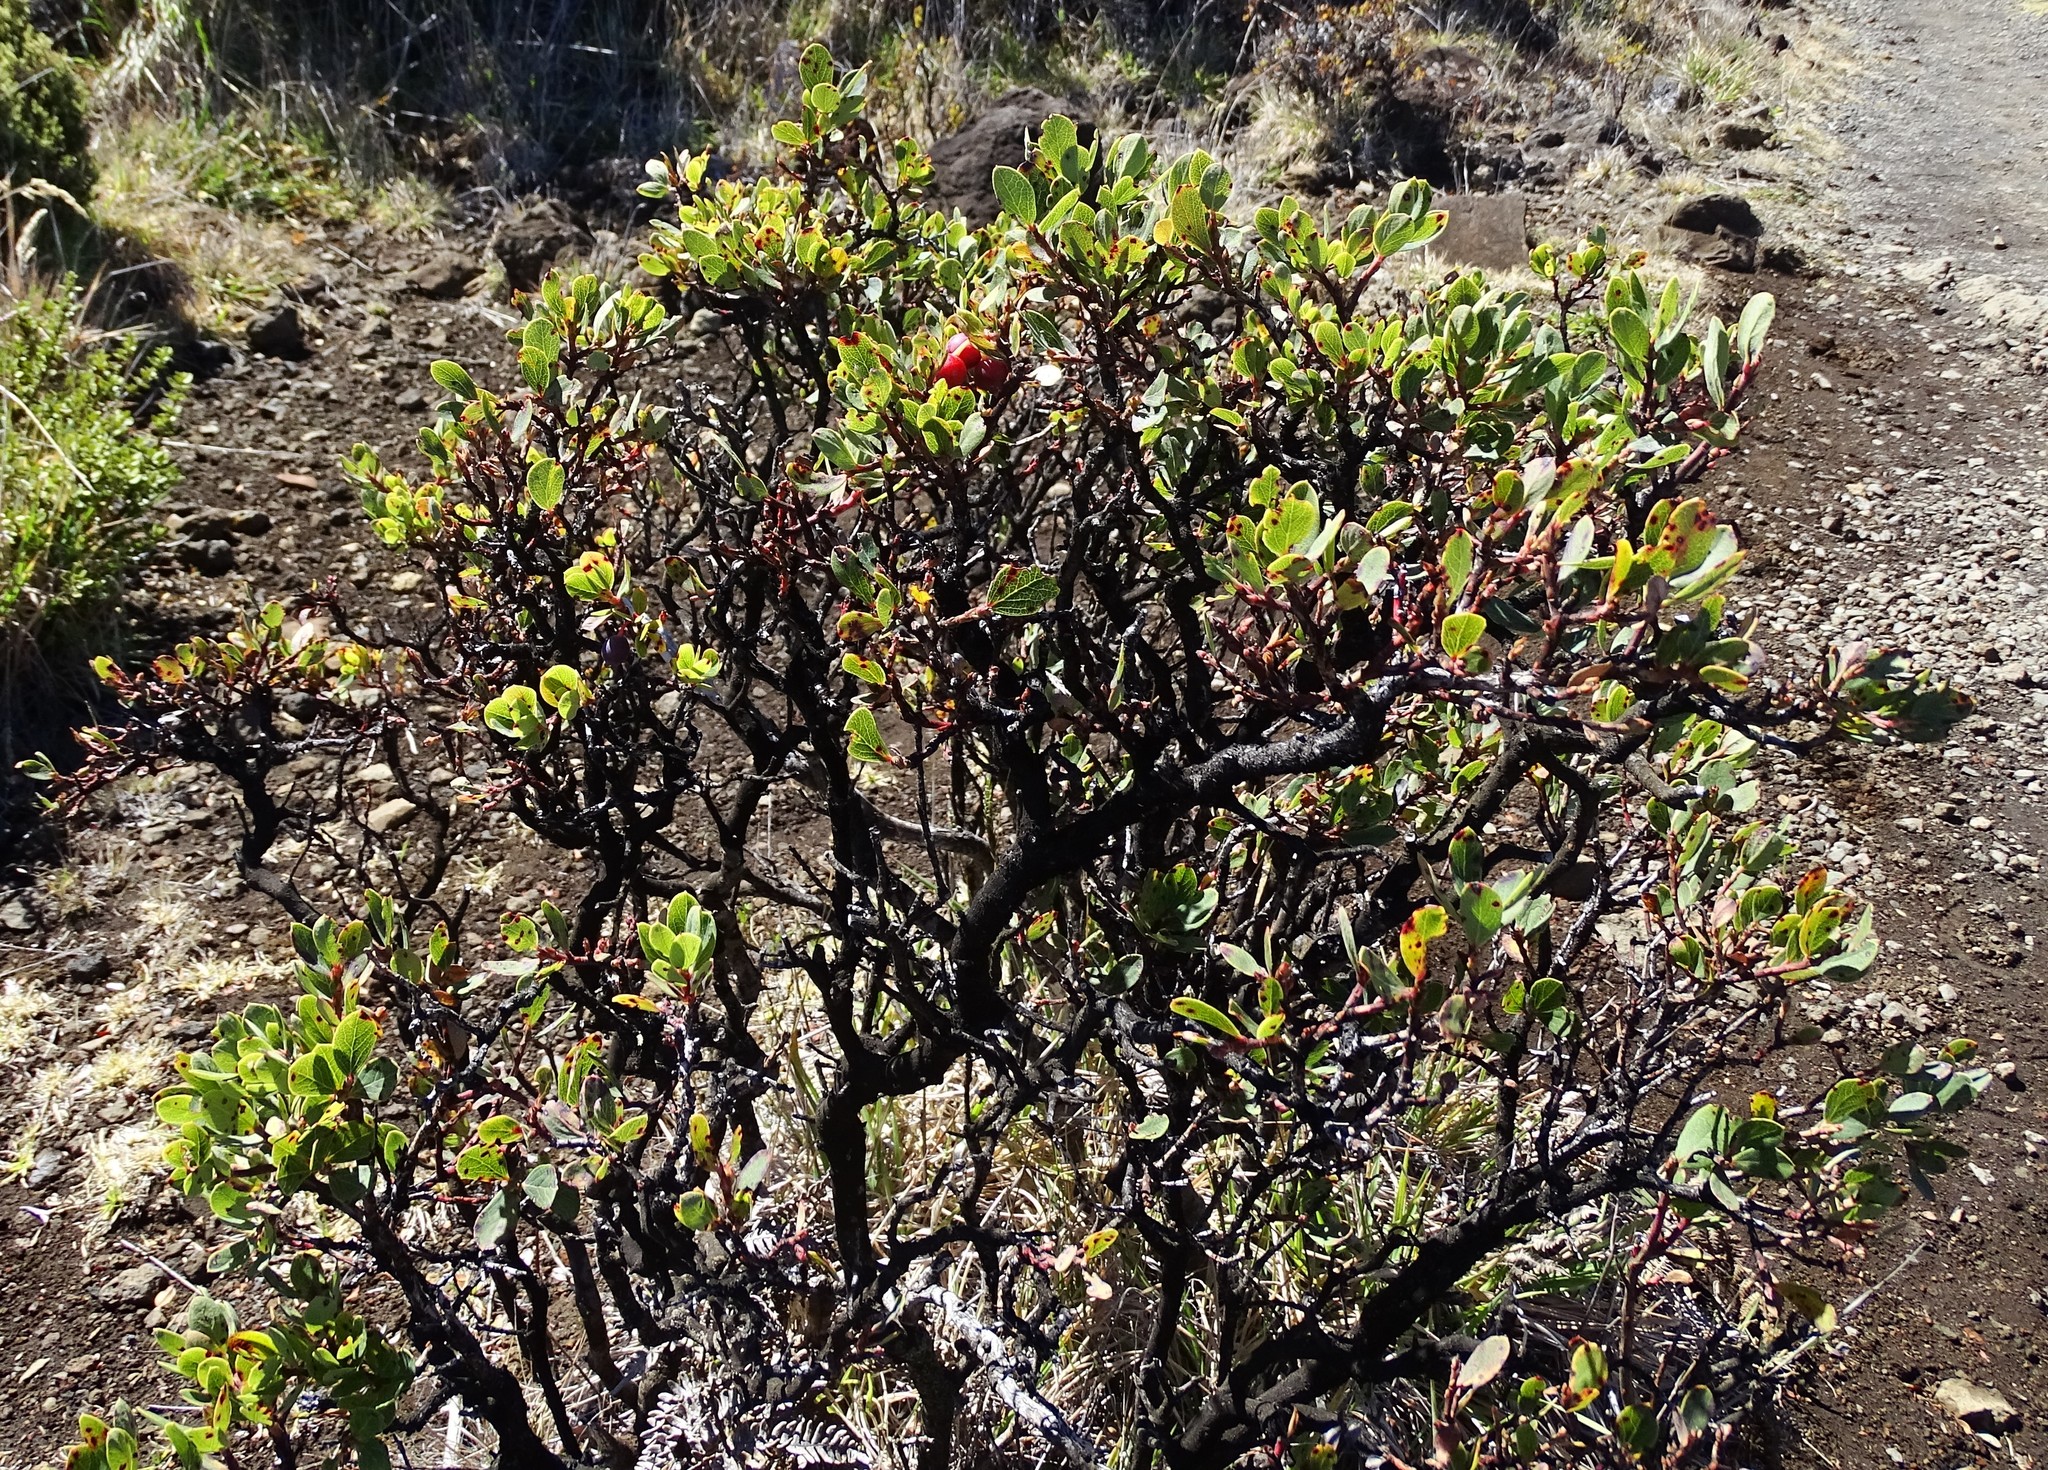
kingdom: Plantae
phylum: Tracheophyta
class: Magnoliopsida
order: Ericales
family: Ericaceae
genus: Vaccinium
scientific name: Vaccinium reticulatum
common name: Ohelo
